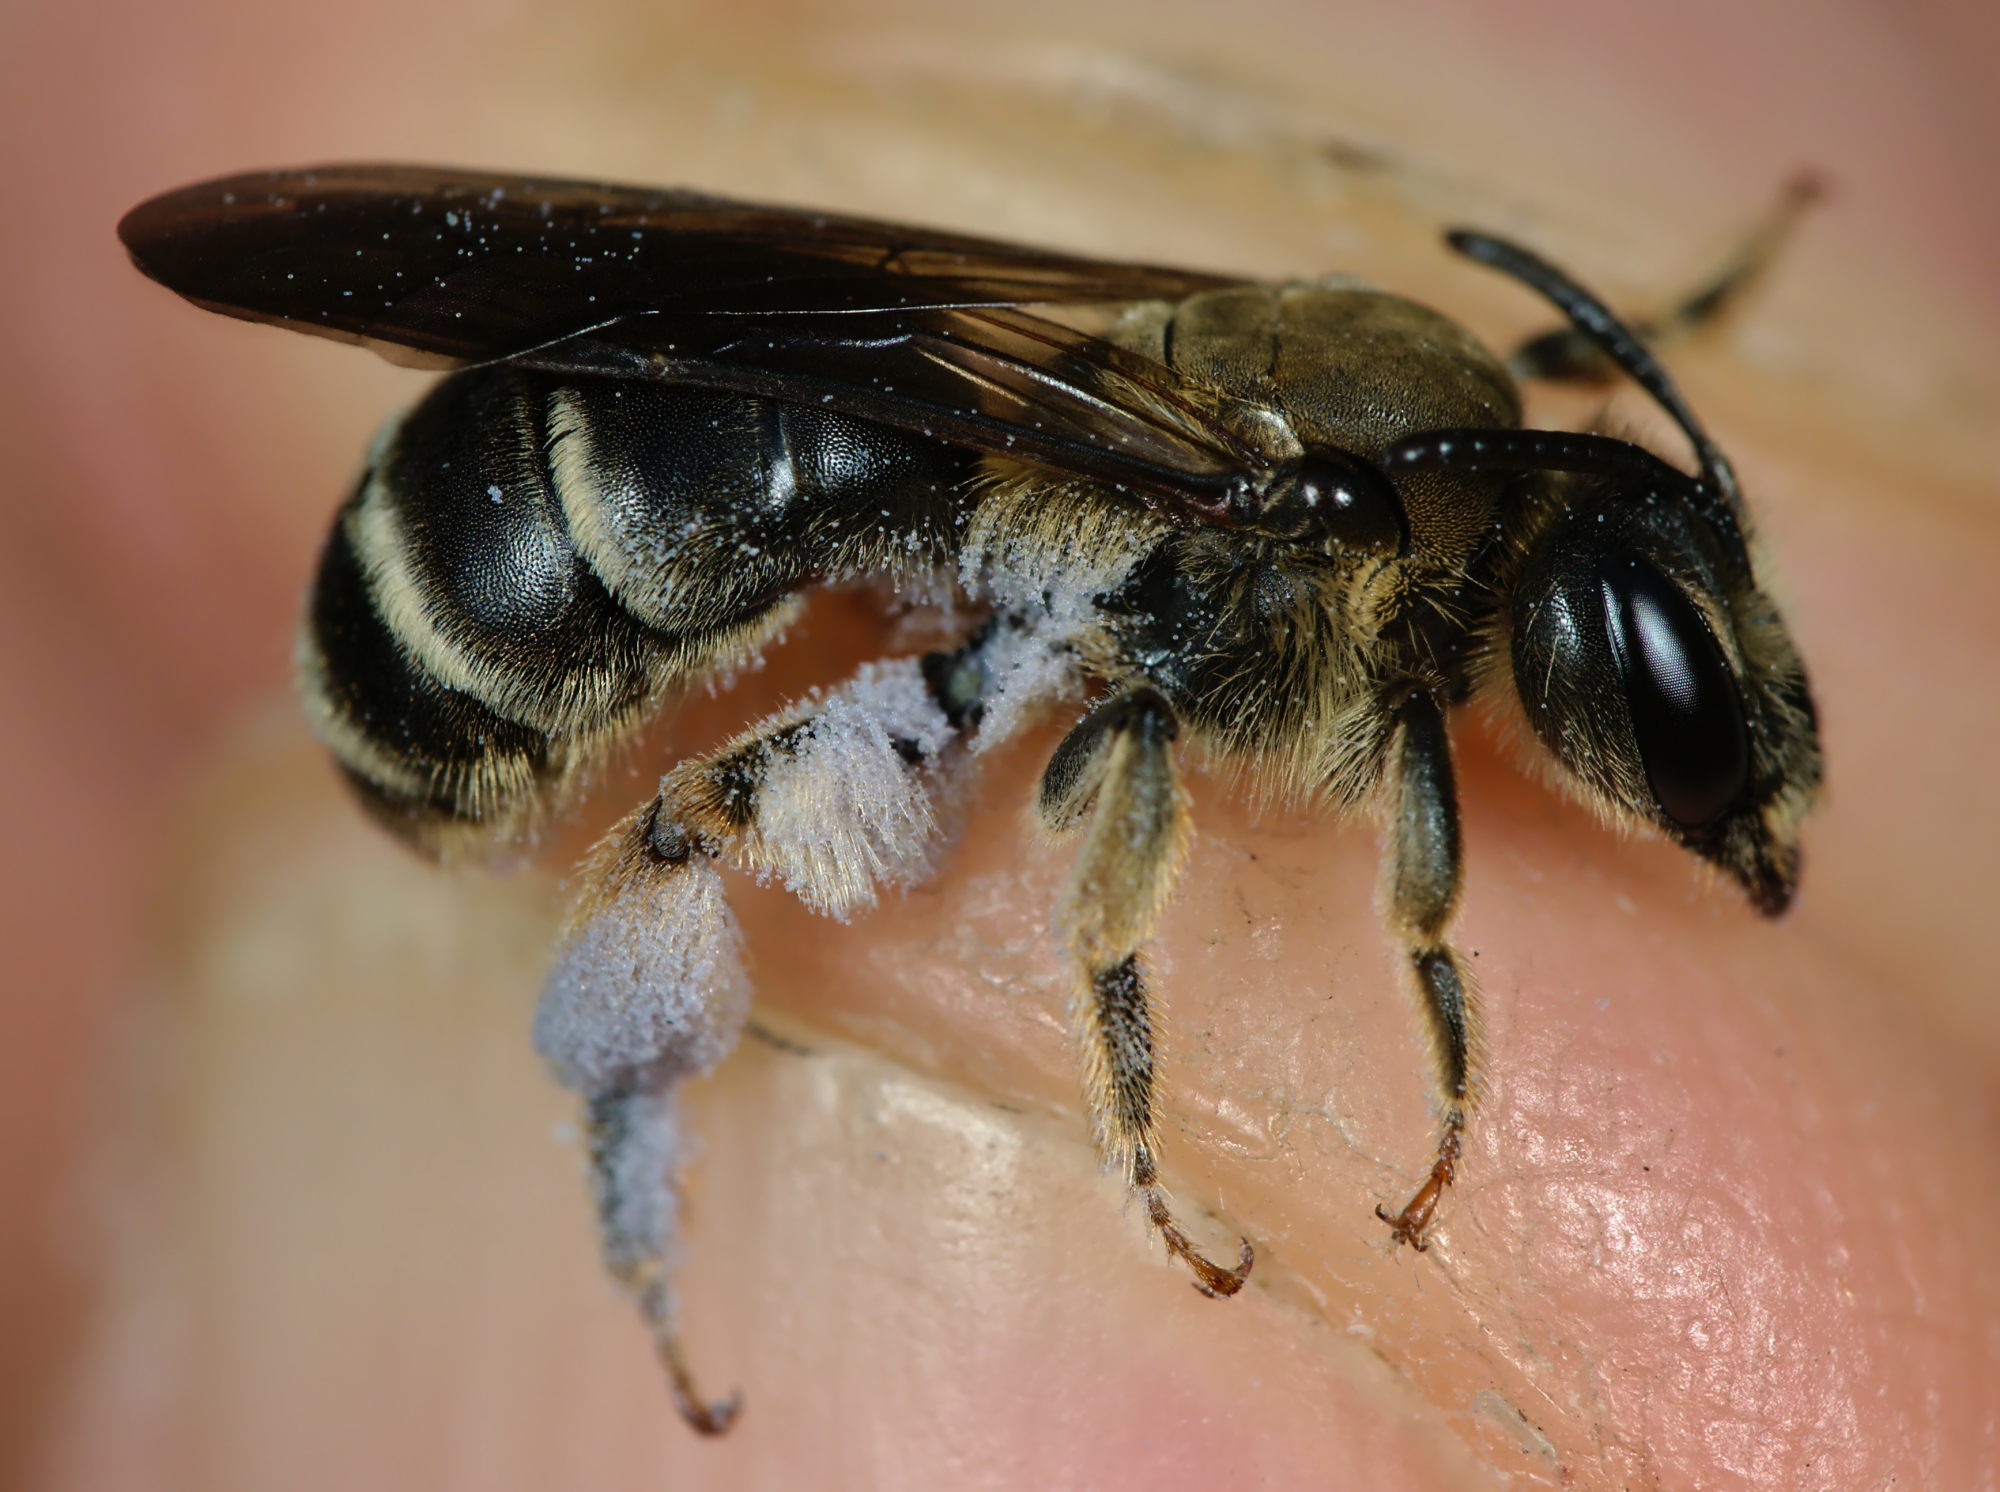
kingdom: Animalia
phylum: Arthropoda
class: Insecta
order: Hymenoptera
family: Andrenidae
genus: Andrena
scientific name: Andrena pandellei
